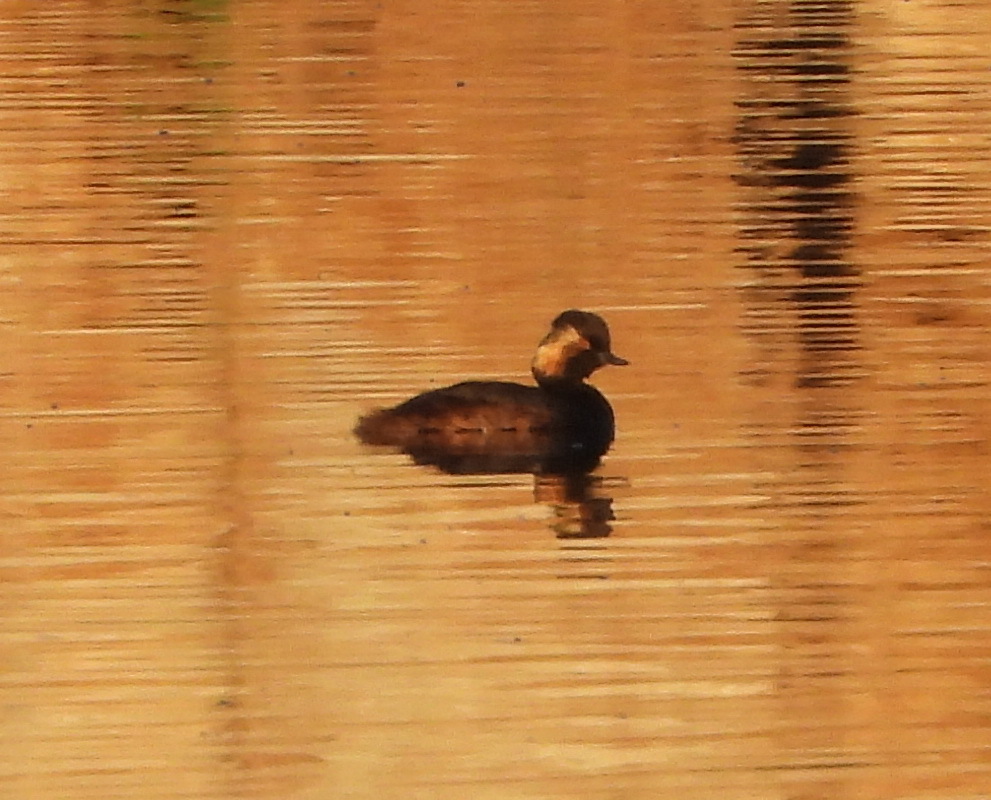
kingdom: Animalia
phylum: Chordata
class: Aves
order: Podicipediformes
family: Podicipedidae
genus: Podiceps
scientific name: Podiceps nigricollis
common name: Black-necked grebe
